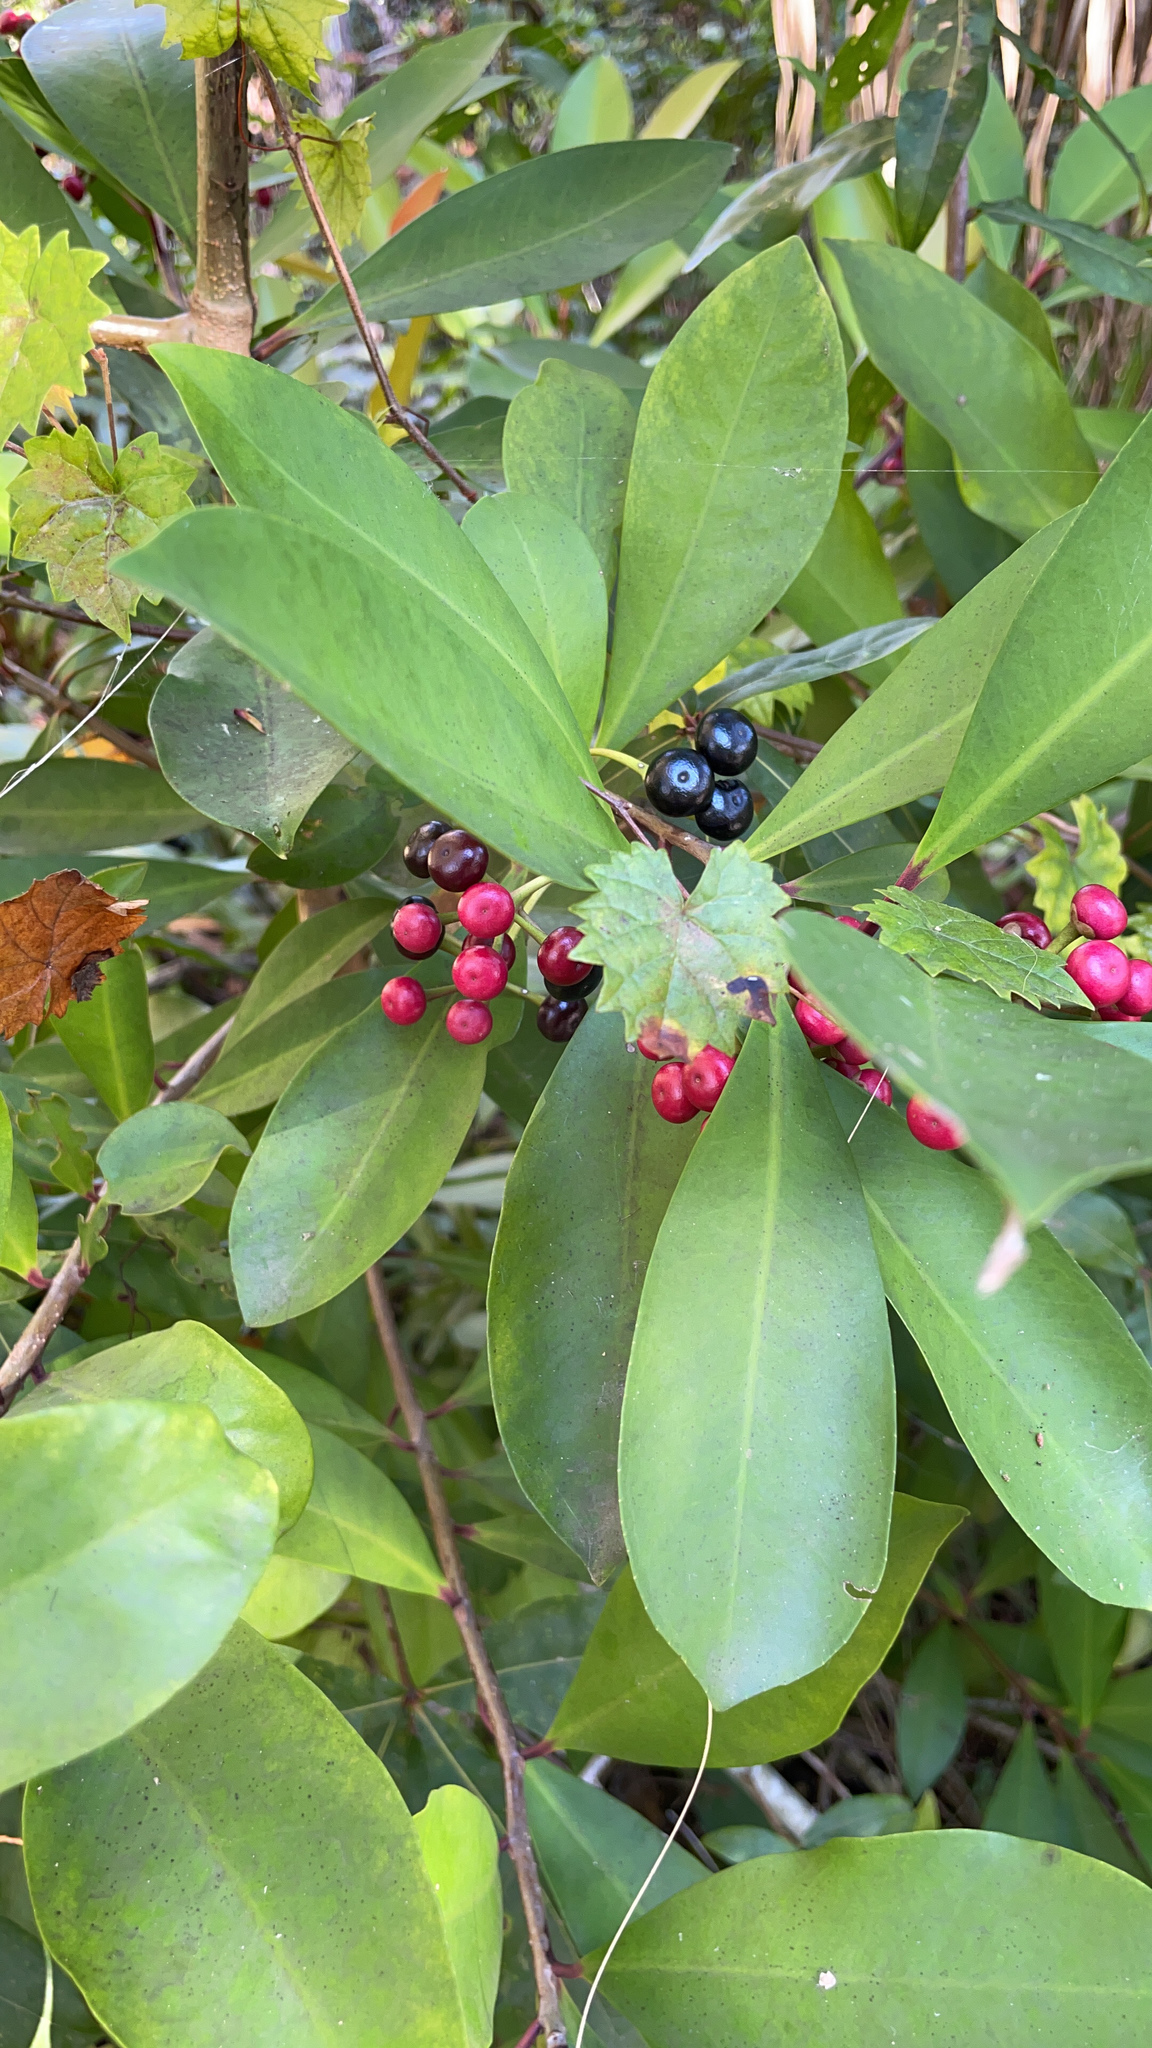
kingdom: Plantae
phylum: Tracheophyta
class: Magnoliopsida
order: Ericales
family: Primulaceae
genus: Ardisia
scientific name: Ardisia elliptica
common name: Shoebutton
